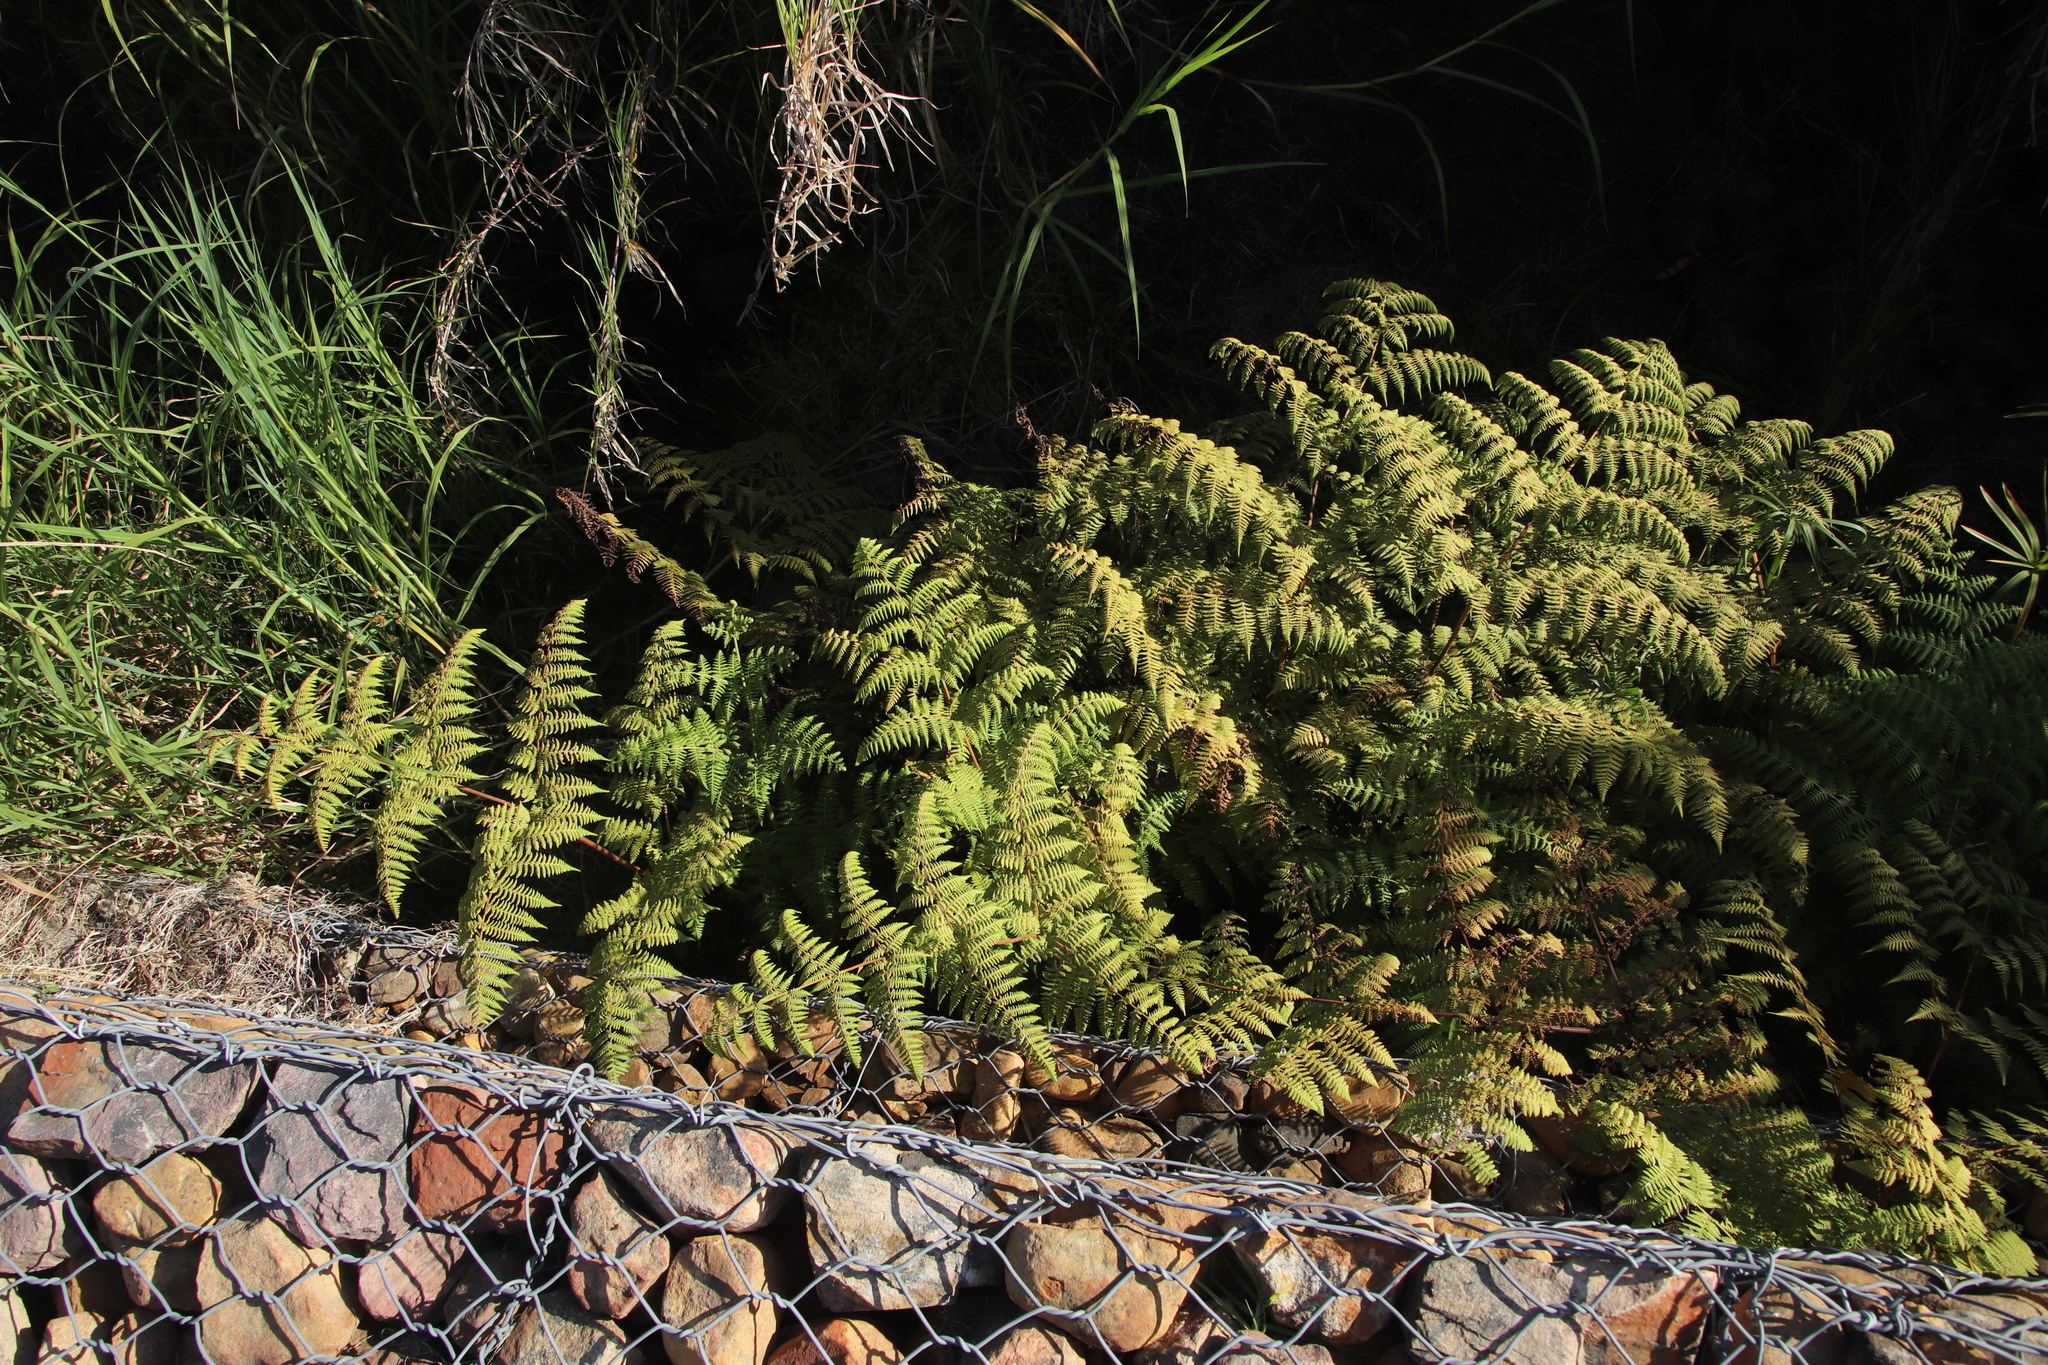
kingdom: Plantae
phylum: Tracheophyta
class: Polypodiopsida
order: Polypodiales
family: Dennstaedtiaceae
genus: Pteridium
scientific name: Pteridium aquilinum
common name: Bracken
